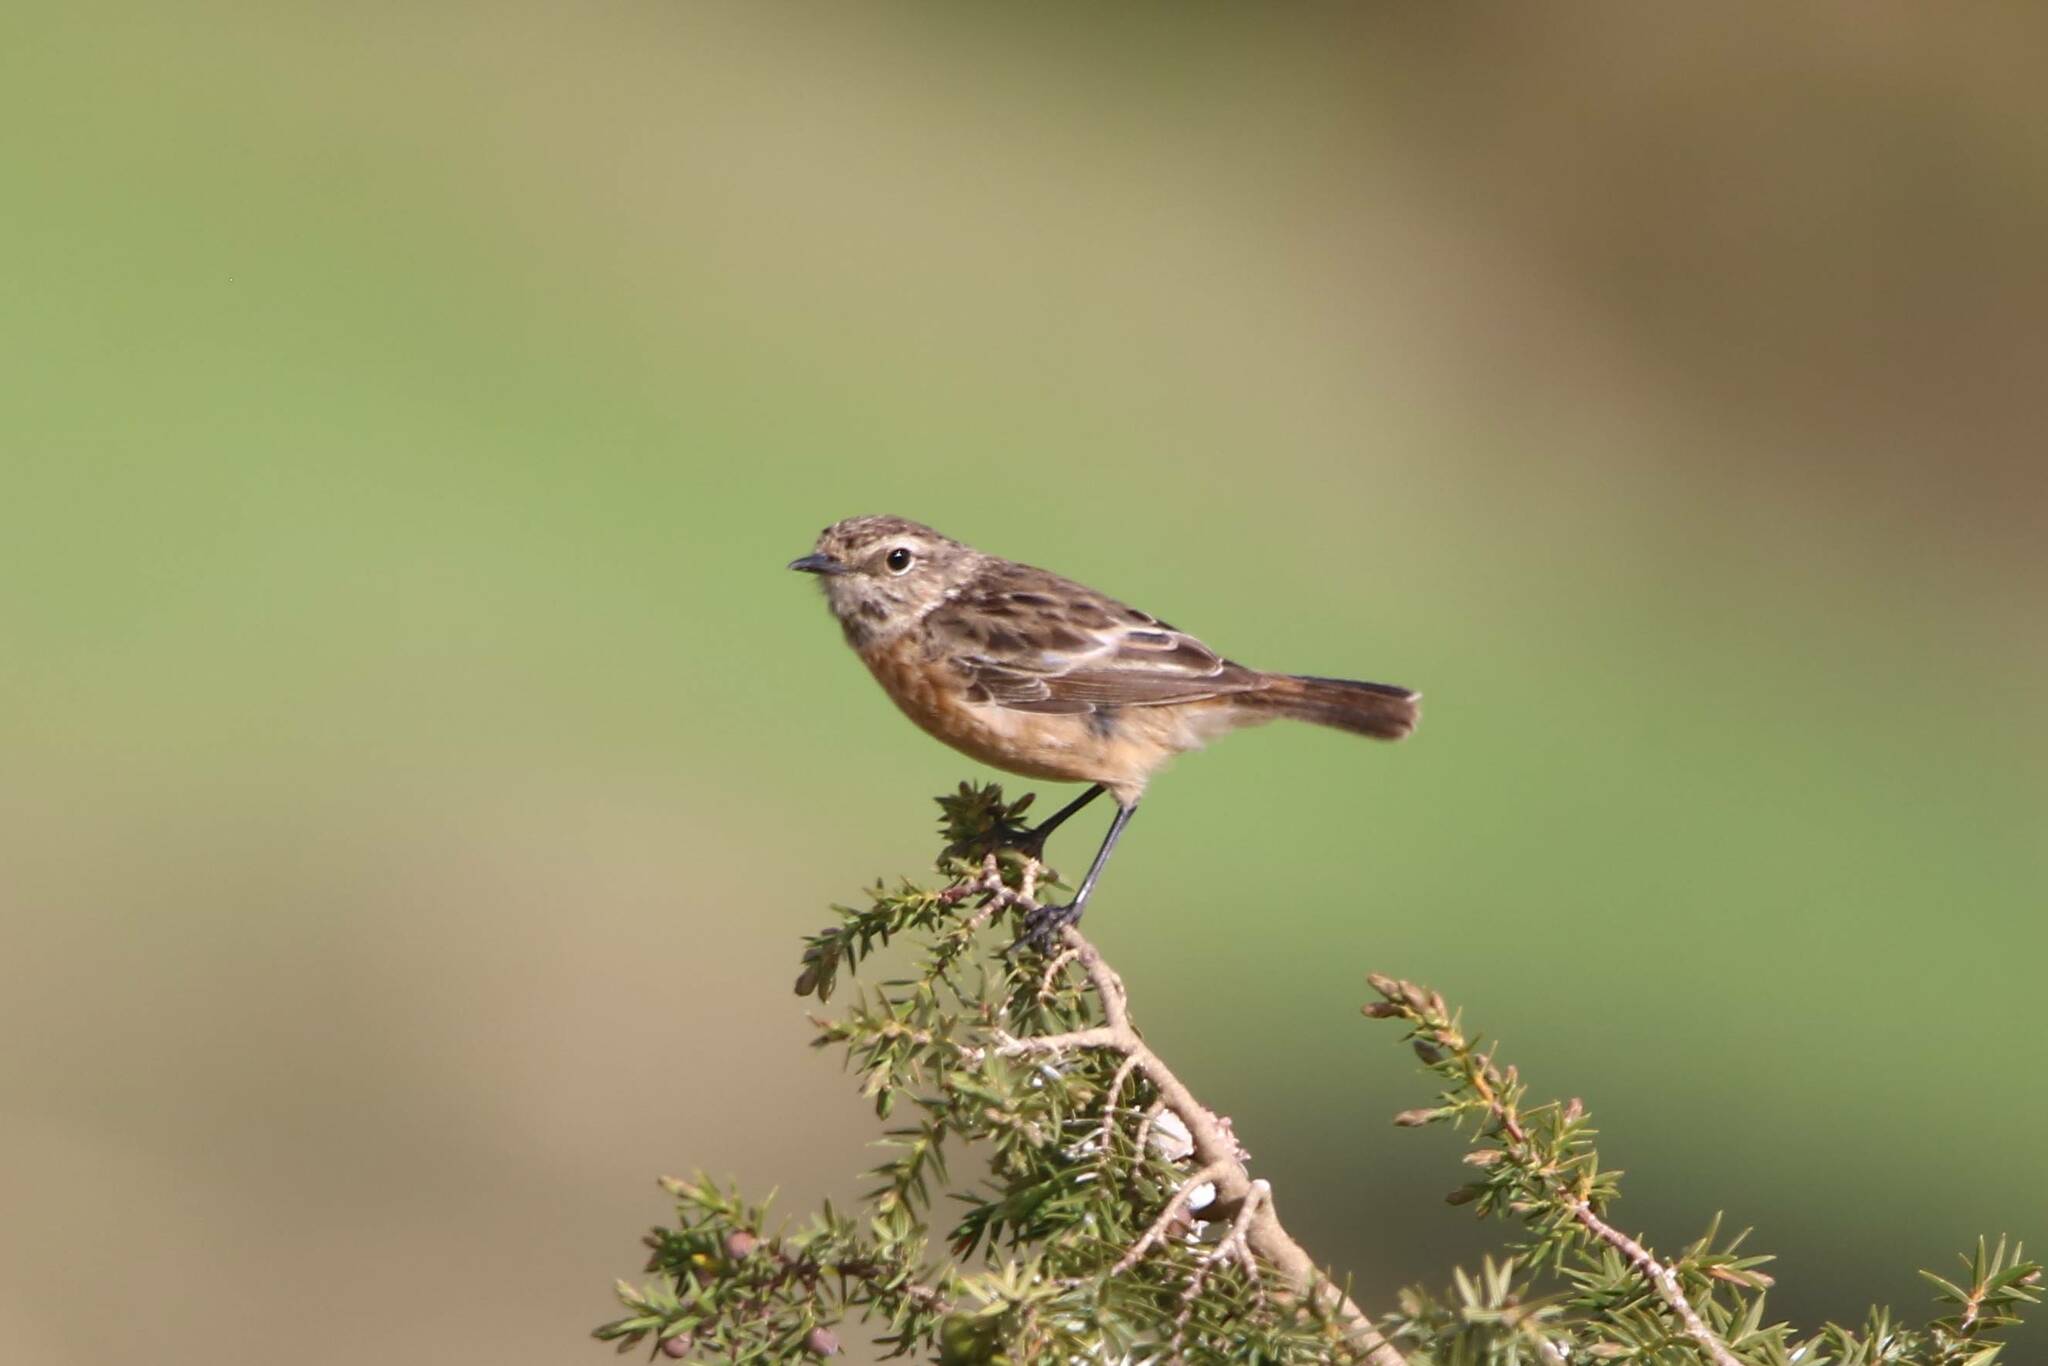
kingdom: Animalia
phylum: Chordata
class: Aves
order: Passeriformes
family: Muscicapidae
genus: Saxicola
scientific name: Saxicola rubicola
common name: European stonechat
